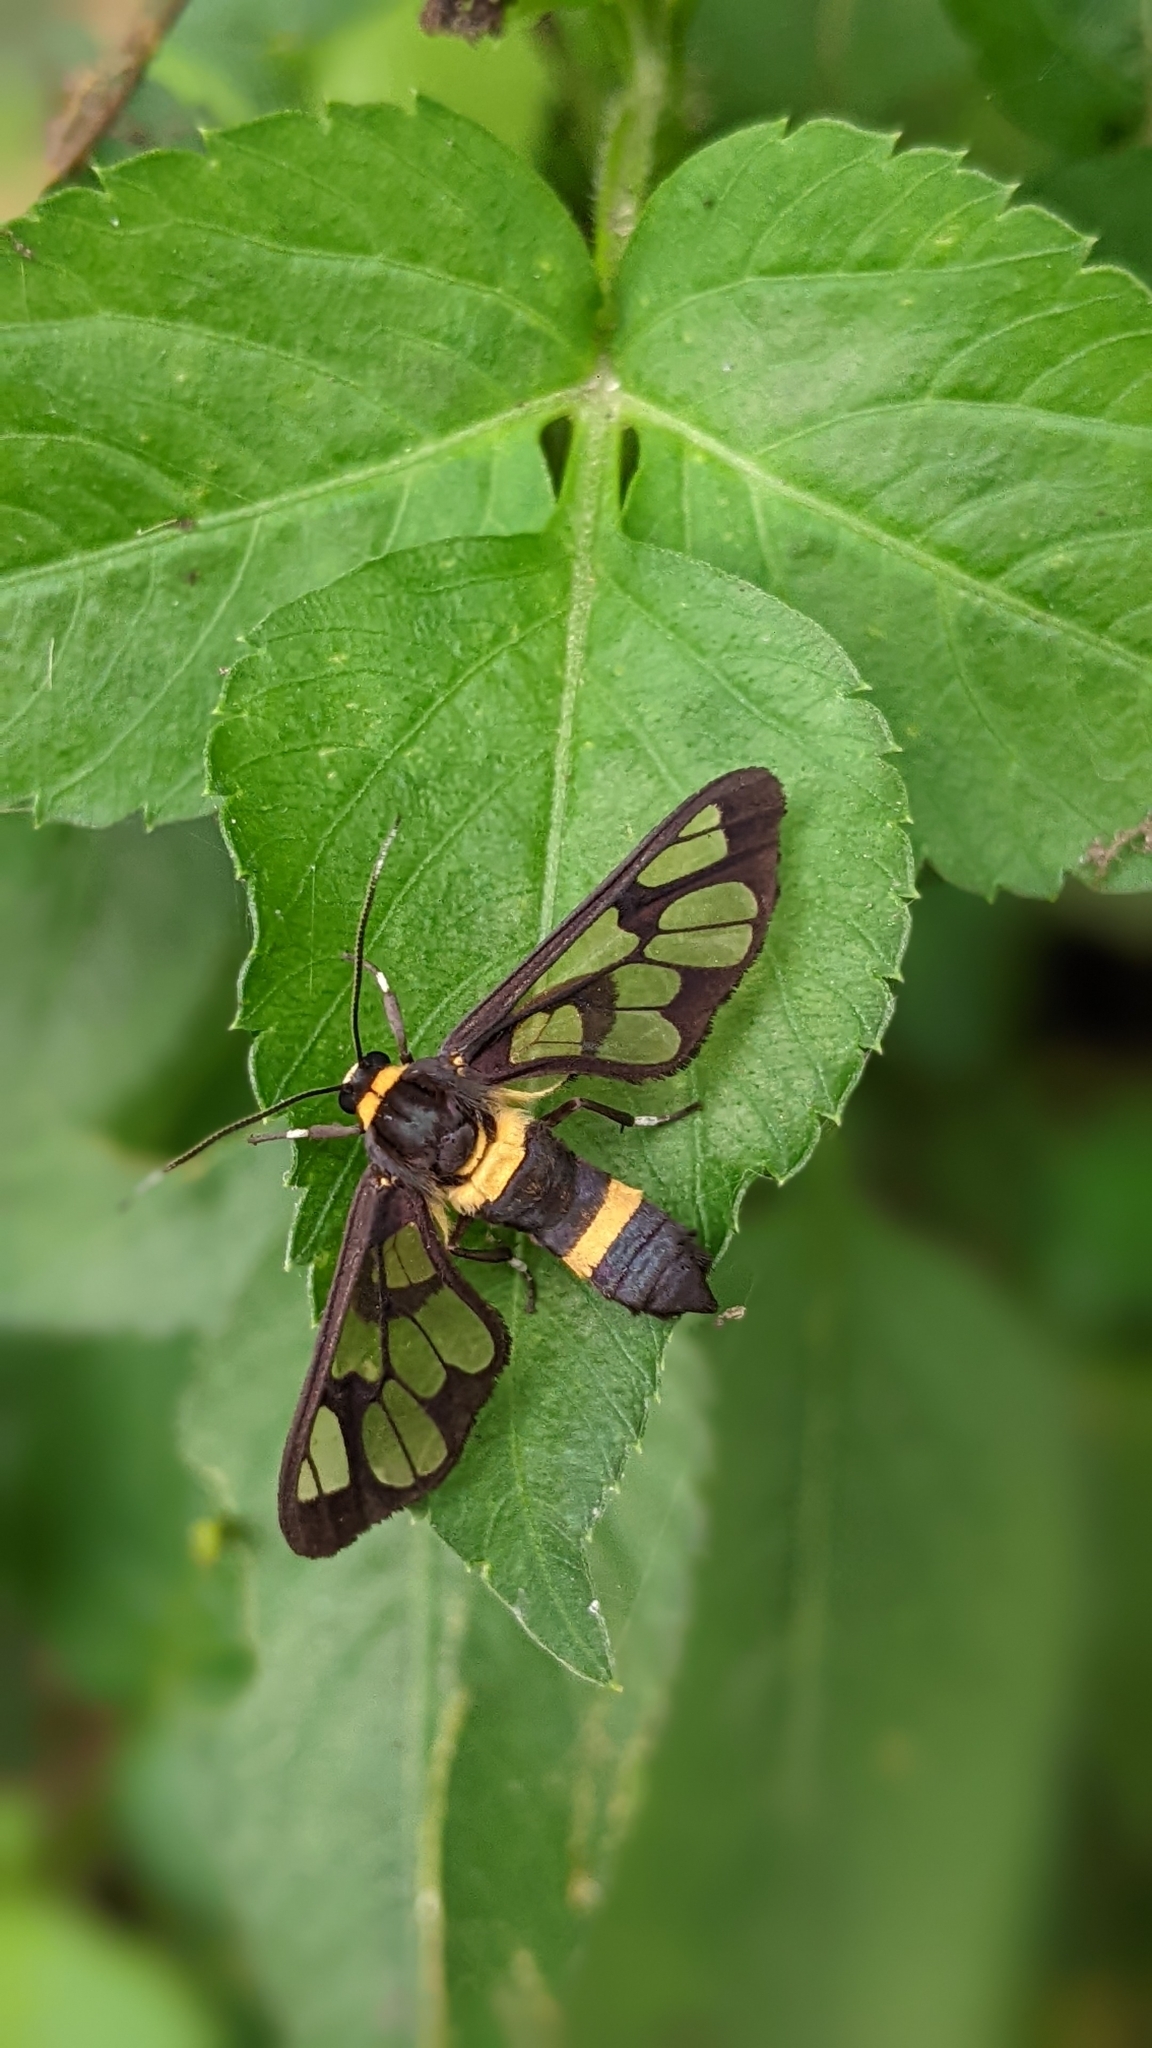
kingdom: Animalia
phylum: Arthropoda
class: Insecta
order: Lepidoptera
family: Erebidae
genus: Syntomoides
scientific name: Syntomoides imaon
